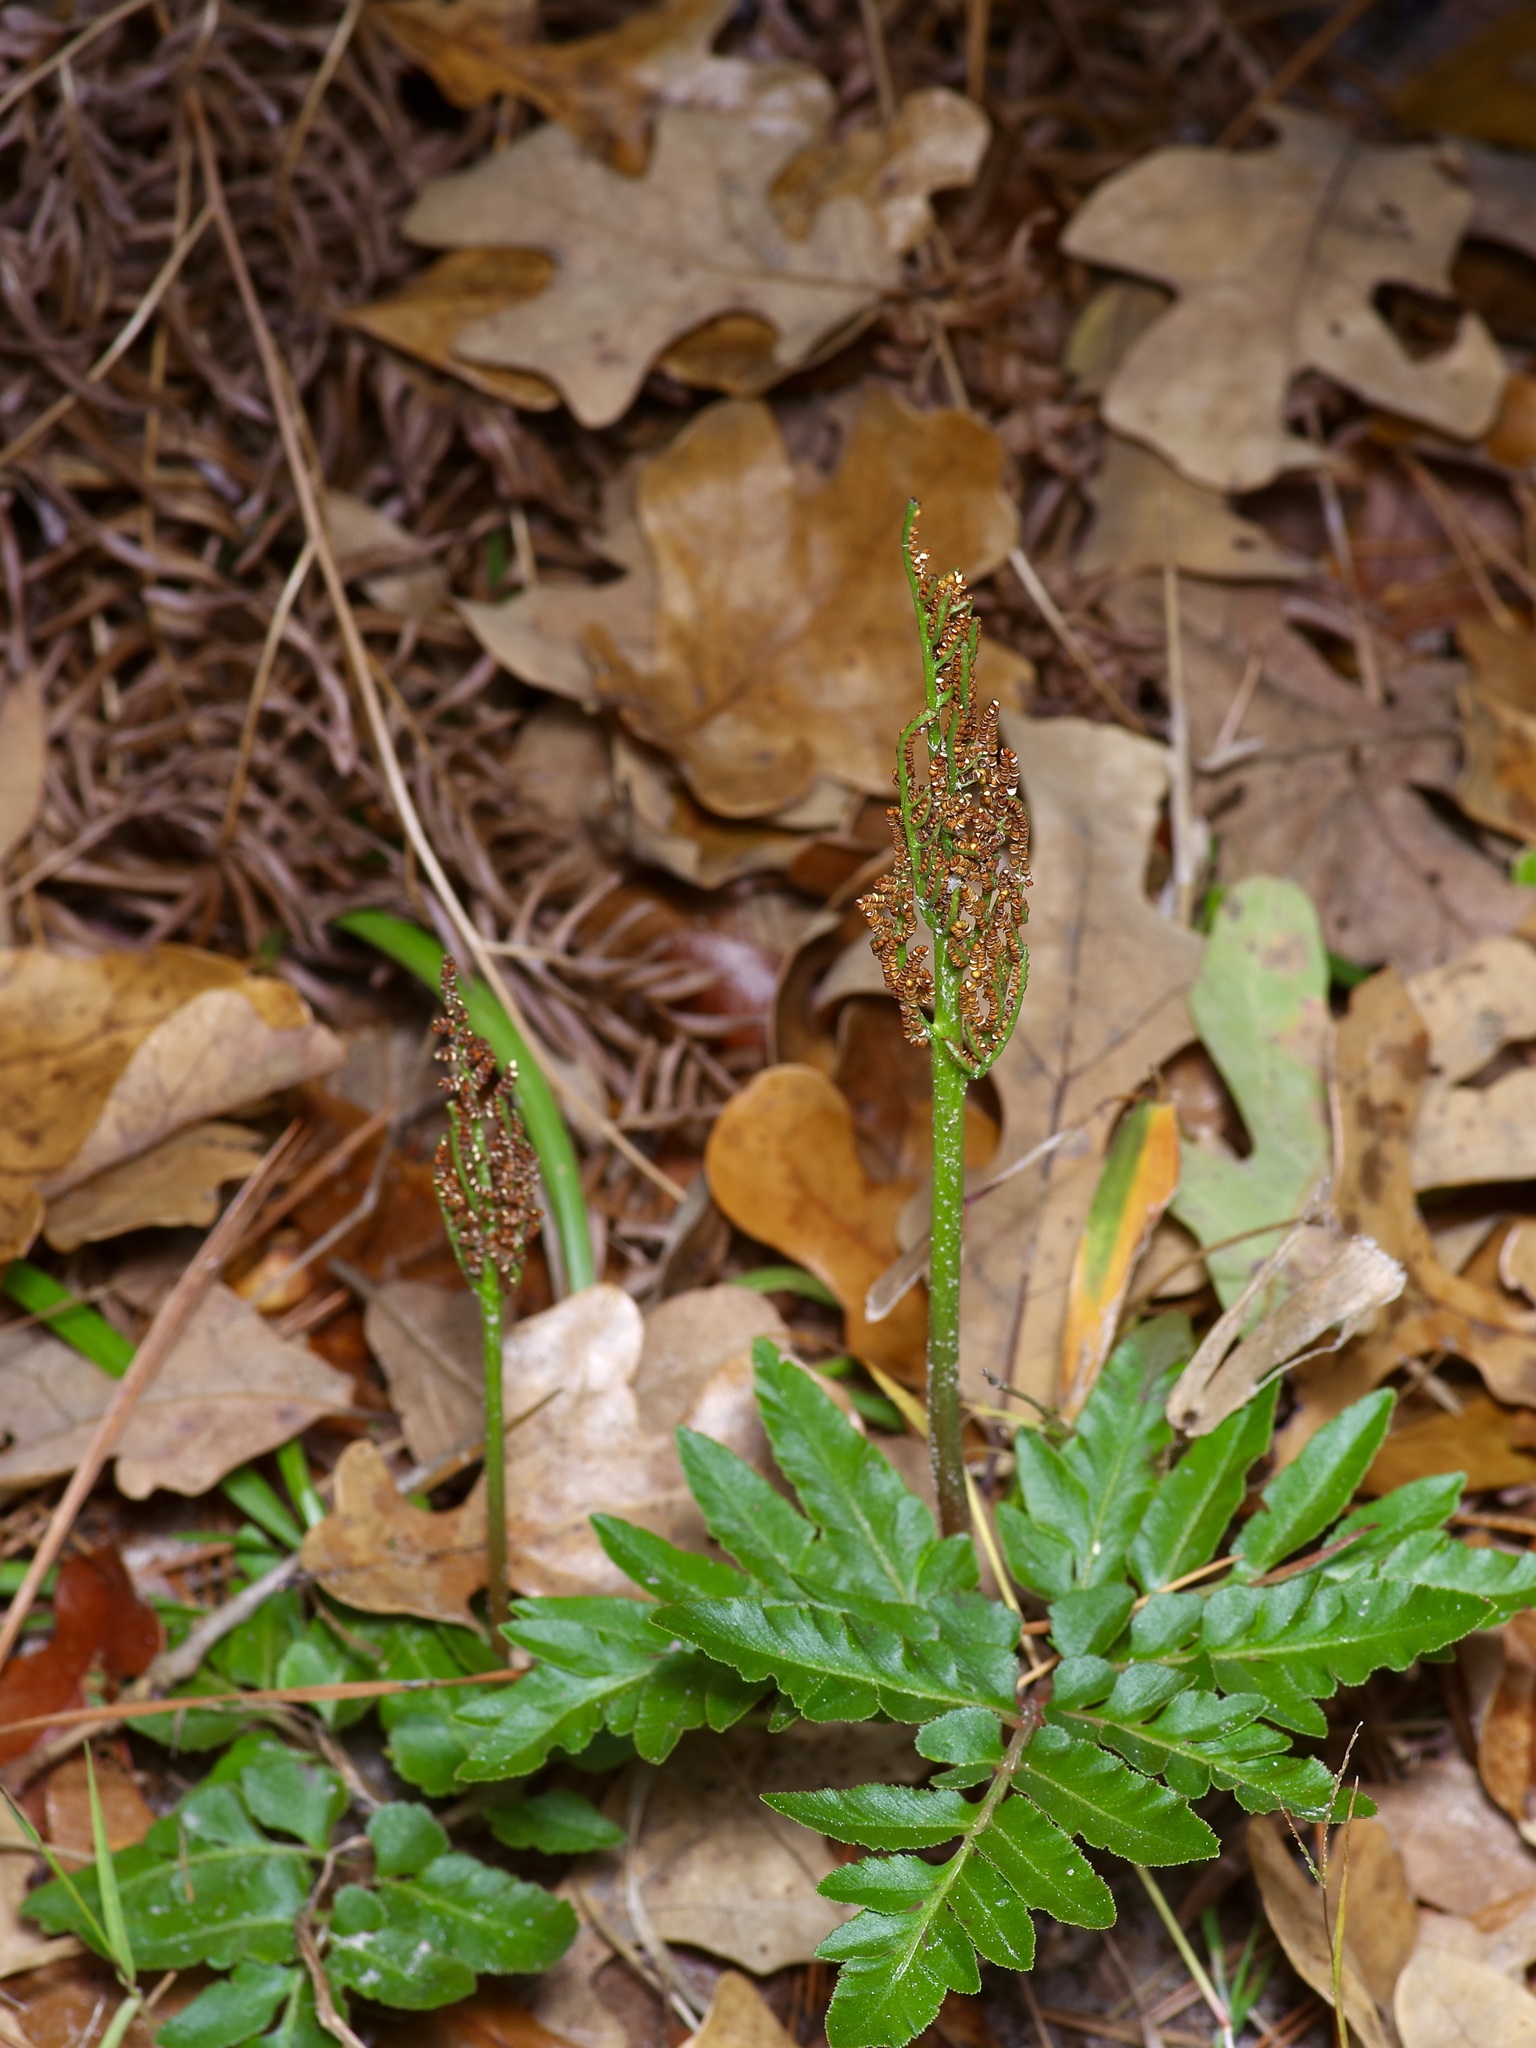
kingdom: Plantae
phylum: Tracheophyta
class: Polypodiopsida
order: Ophioglossales
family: Ophioglossaceae
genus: Sceptridium
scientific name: Sceptridium biternatum
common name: Sparse-lobed grapefern
